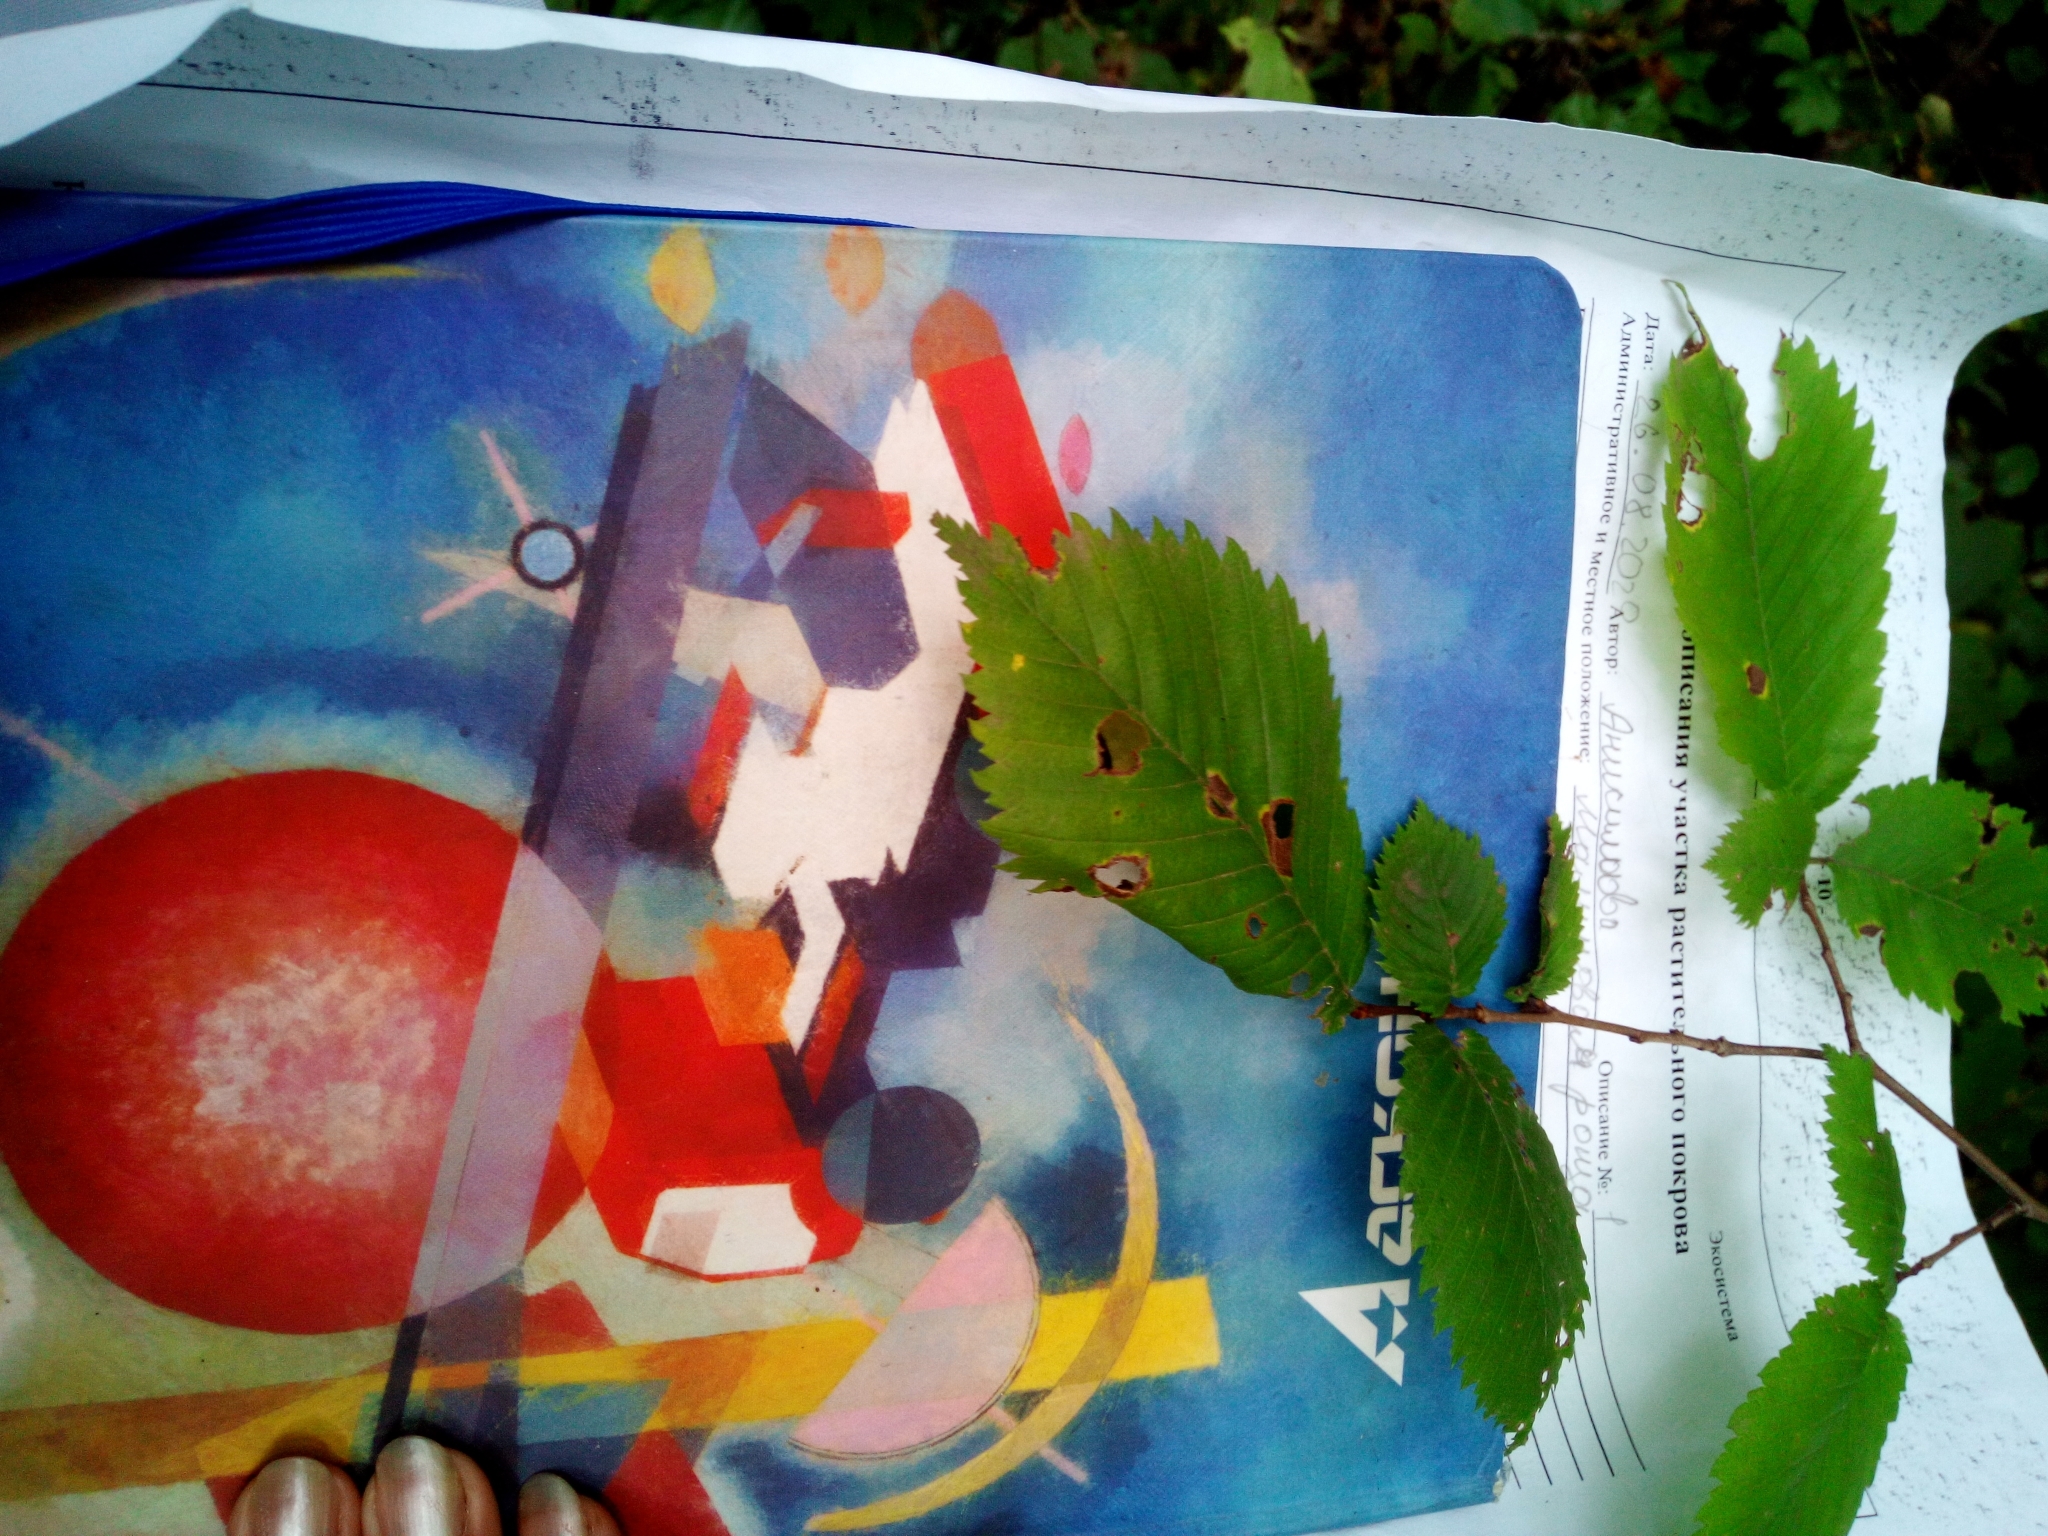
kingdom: Plantae
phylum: Tracheophyta
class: Magnoliopsida
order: Rosales
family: Ulmaceae
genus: Ulmus
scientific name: Ulmus laevis
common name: European white-elm
